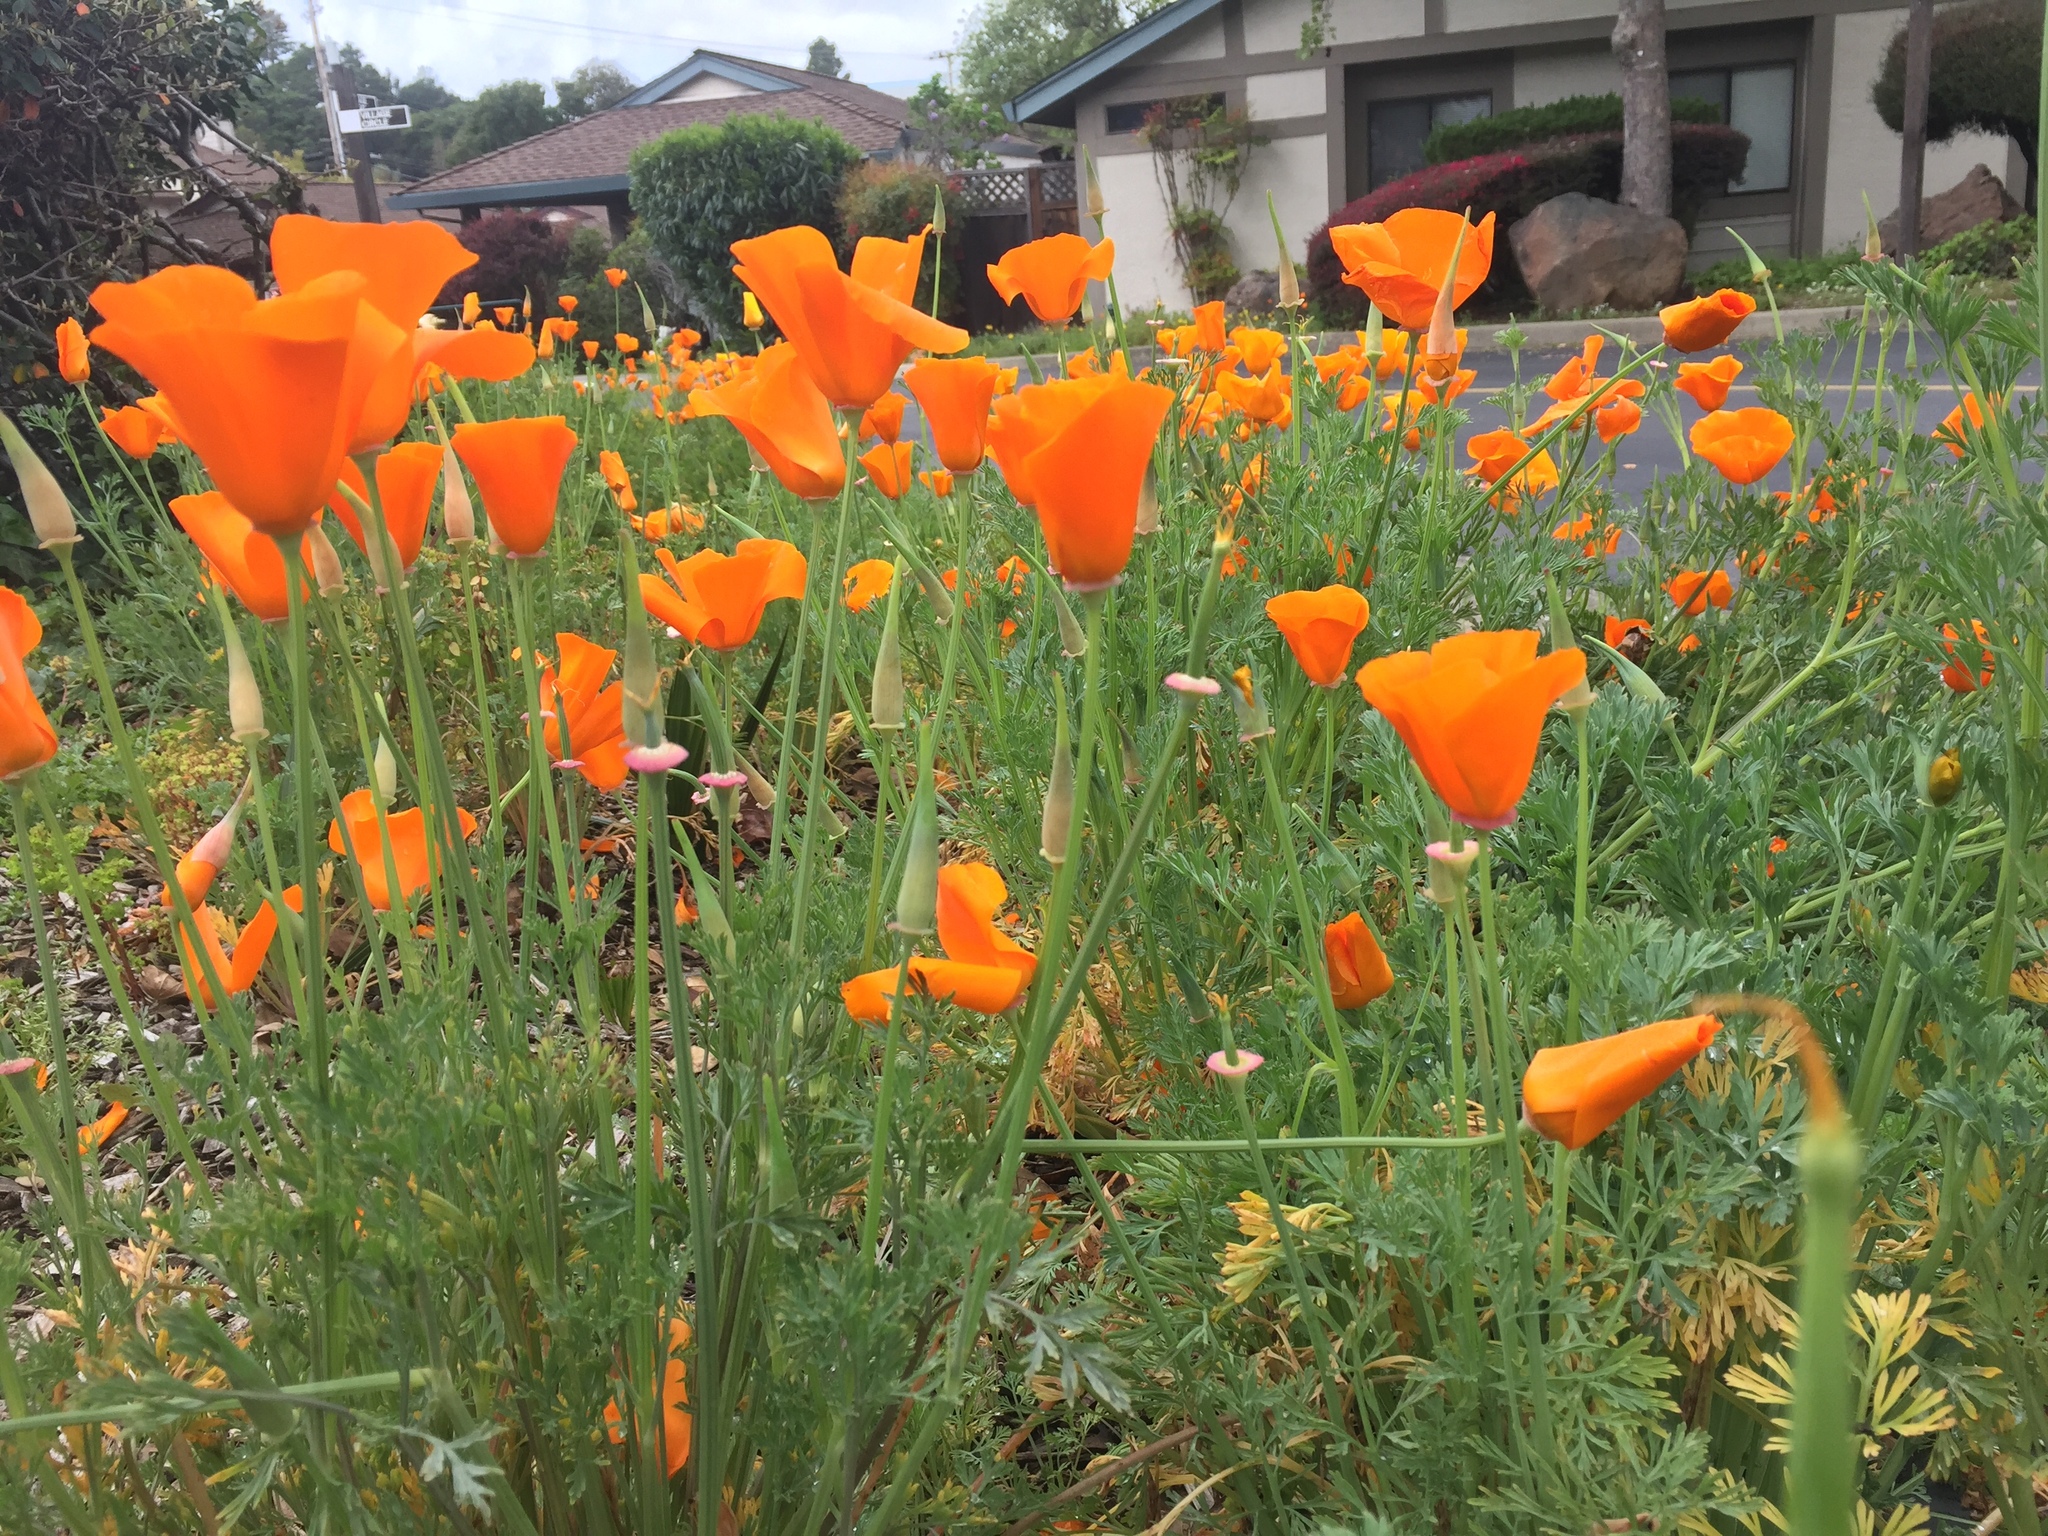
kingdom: Plantae
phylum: Tracheophyta
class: Magnoliopsida
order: Ranunculales
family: Papaveraceae
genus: Eschscholzia
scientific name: Eschscholzia californica
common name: California poppy
